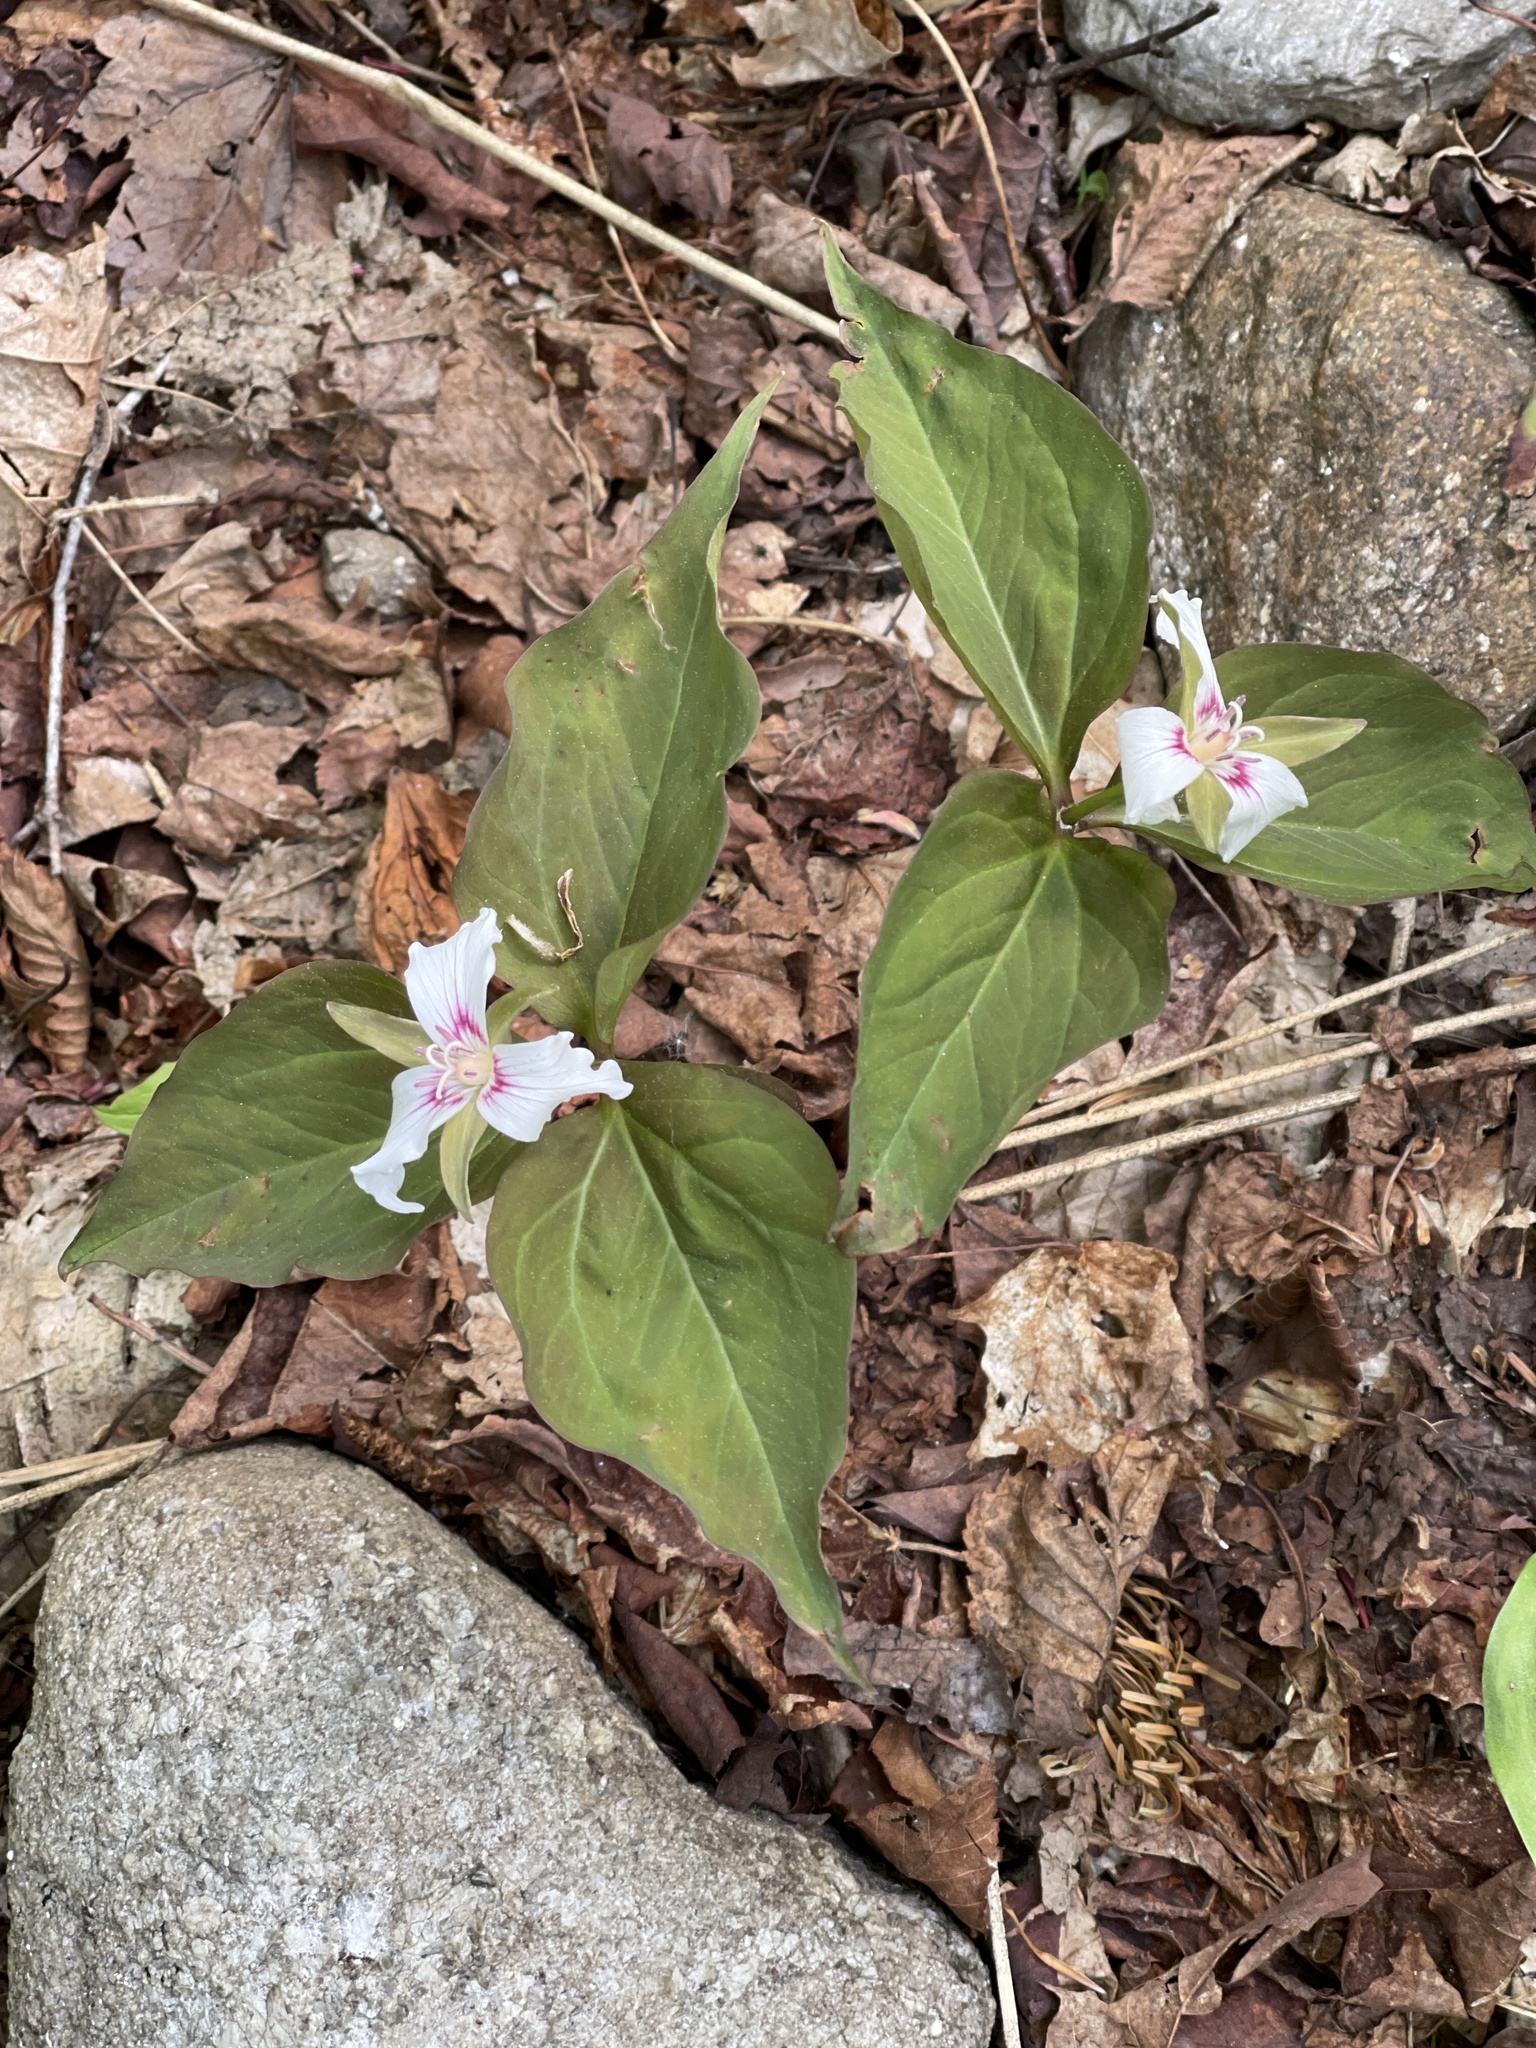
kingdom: Plantae
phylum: Tracheophyta
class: Liliopsida
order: Liliales
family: Melanthiaceae
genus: Trillium
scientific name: Trillium undulatum
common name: Paint trillium
